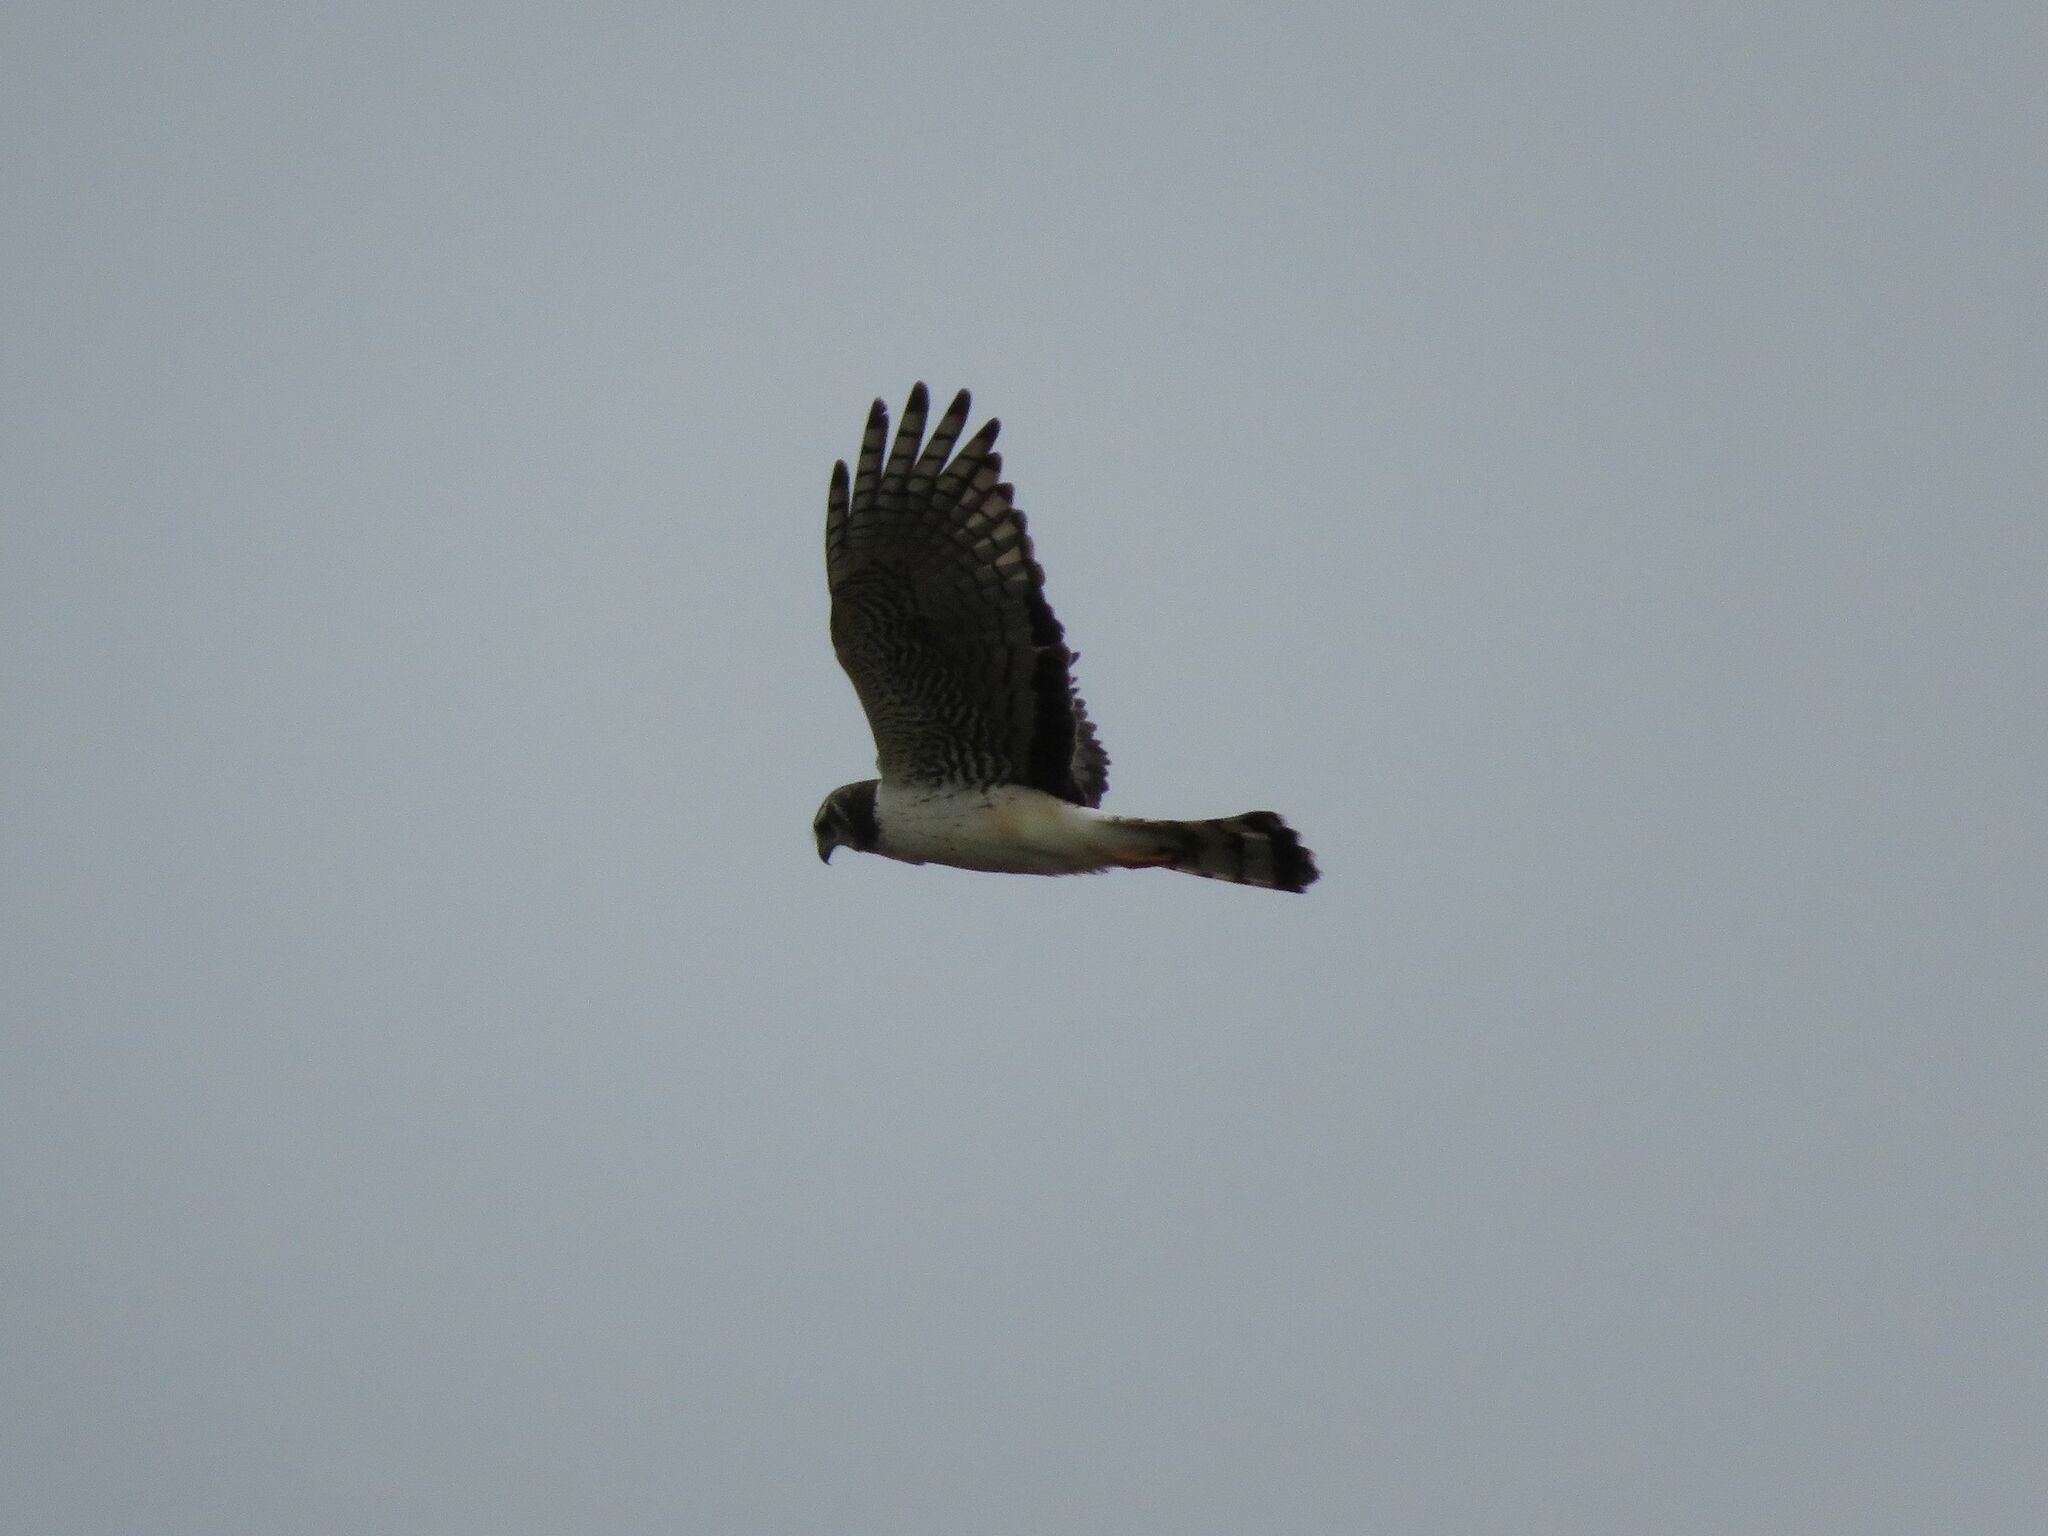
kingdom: Animalia
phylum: Chordata
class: Aves
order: Accipitriformes
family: Accipitridae
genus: Circus
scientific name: Circus buffoni
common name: Long-winged harrier
